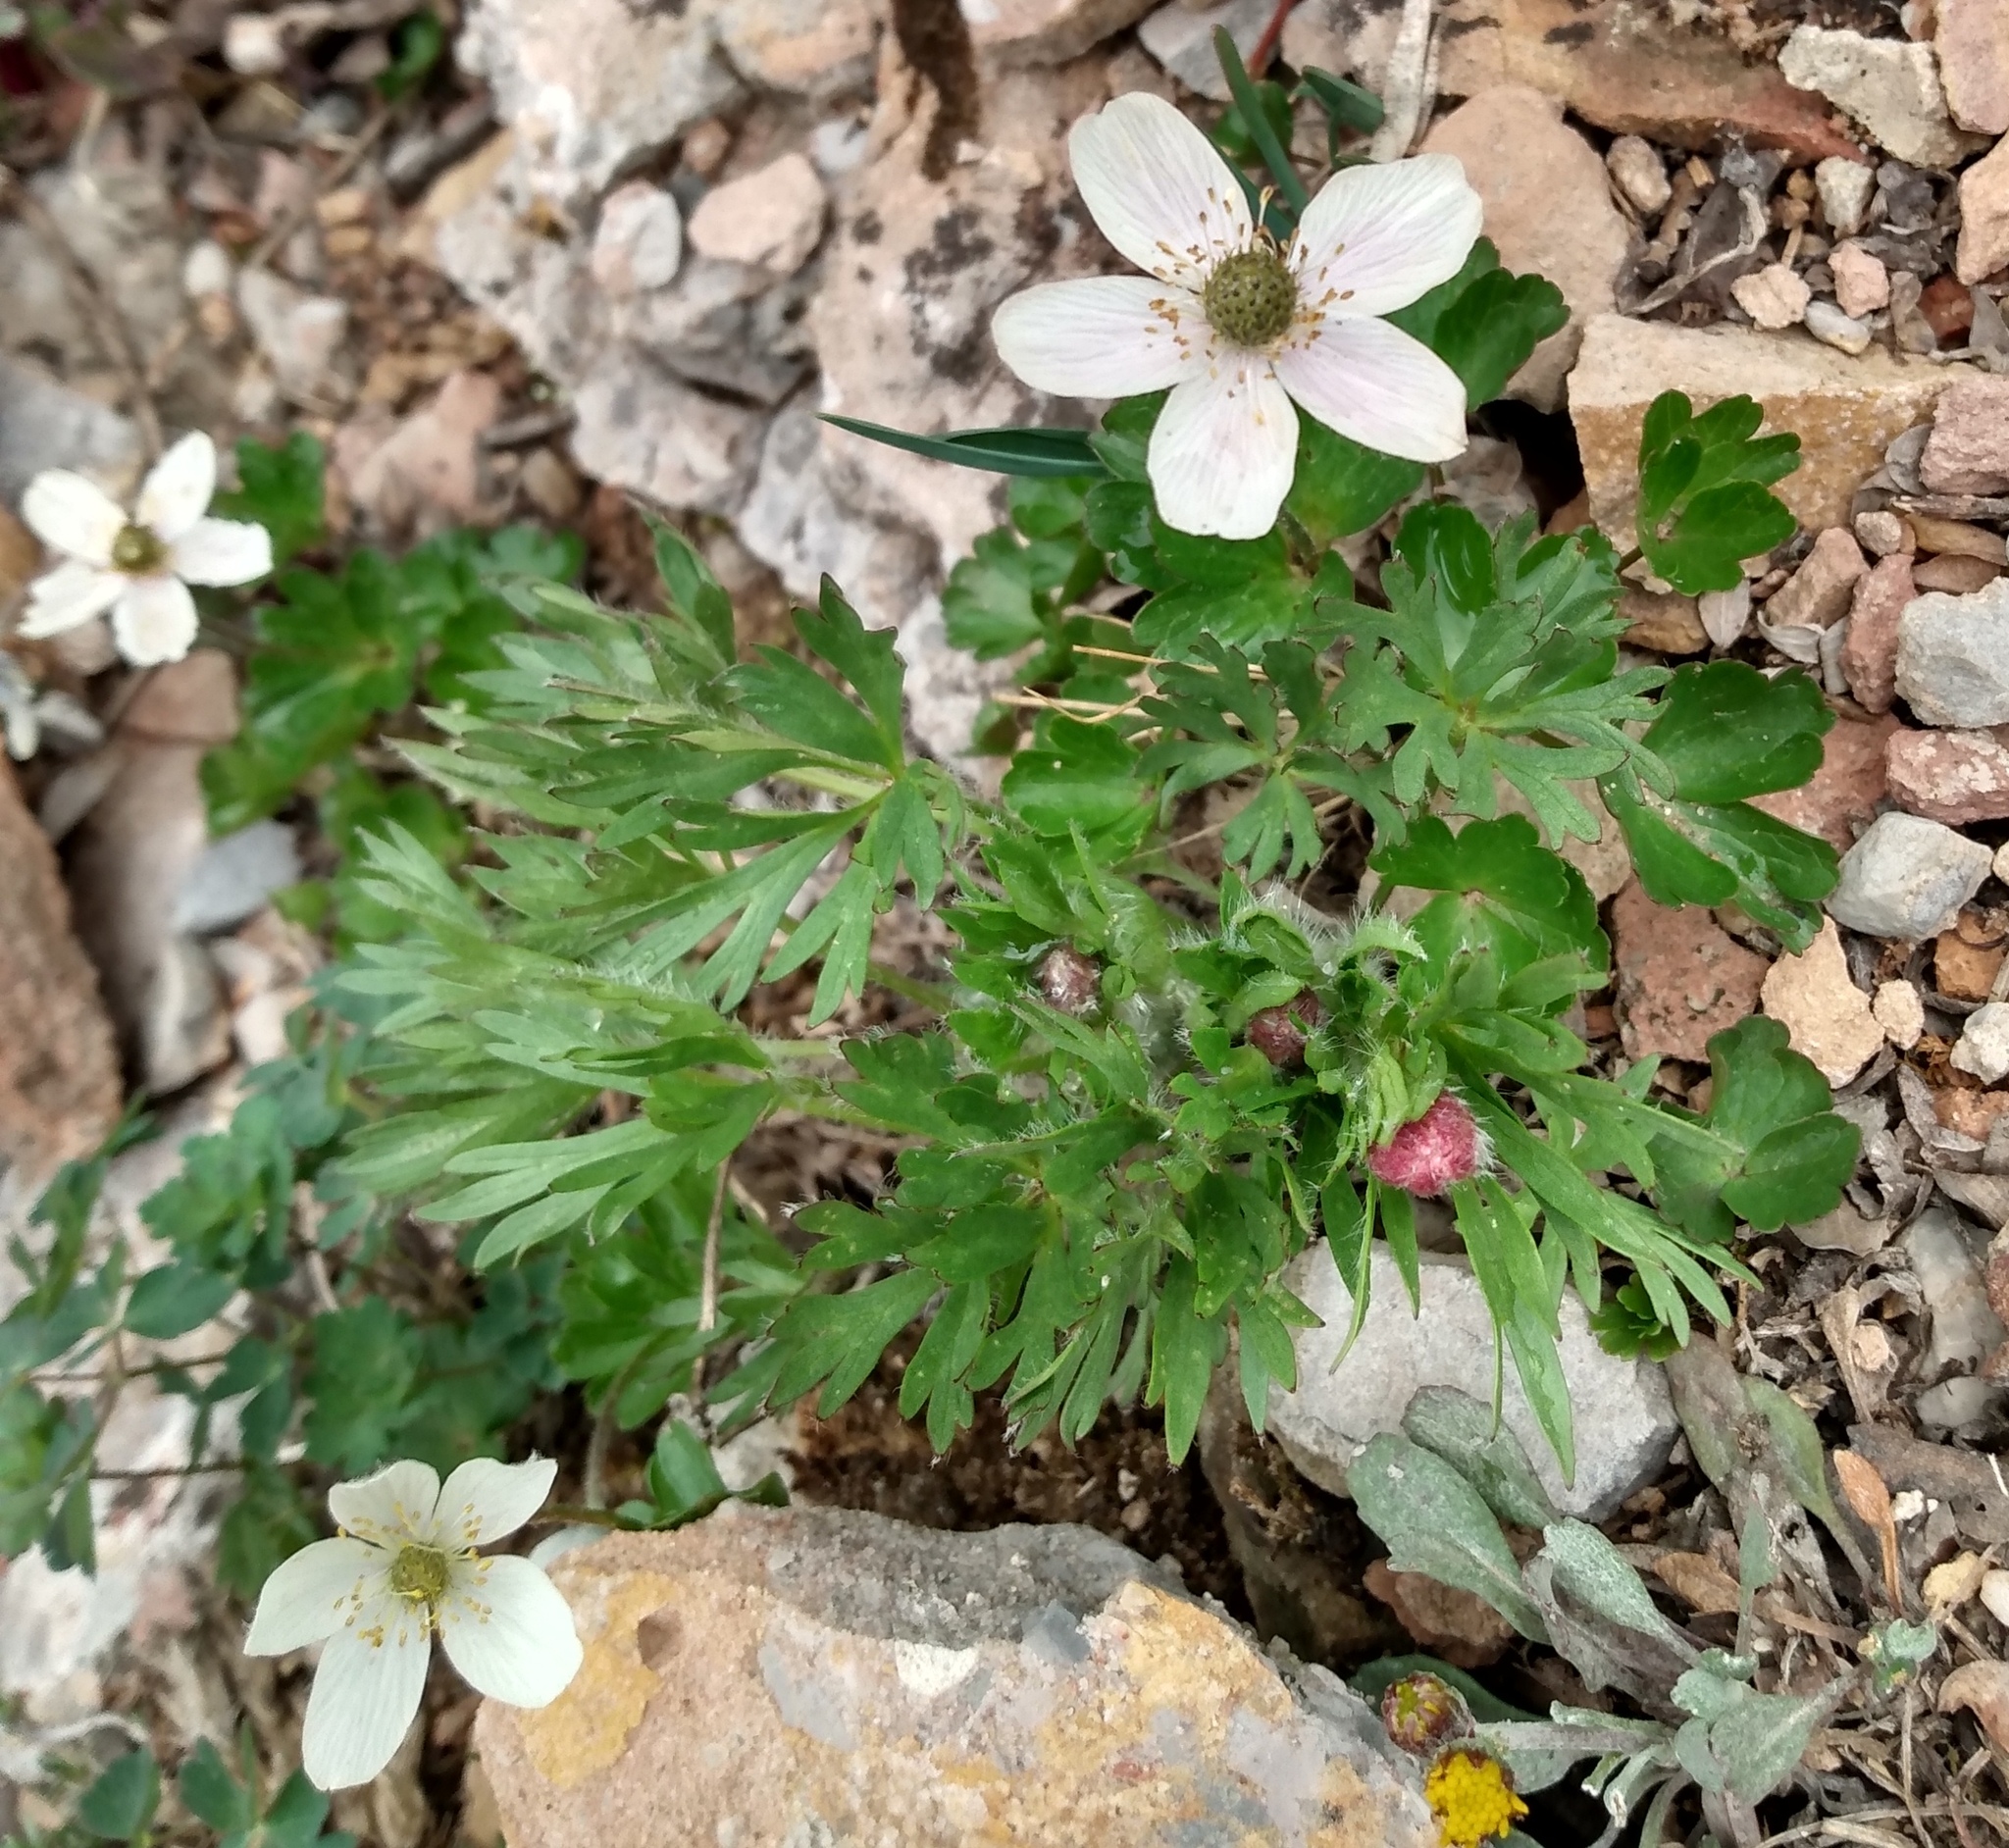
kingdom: Plantae
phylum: Tracheophyta
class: Magnoliopsida
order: Ranunculales
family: Ranunculaceae
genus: Anemone
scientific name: Anemone multifida
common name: Bird's-foot anemone
